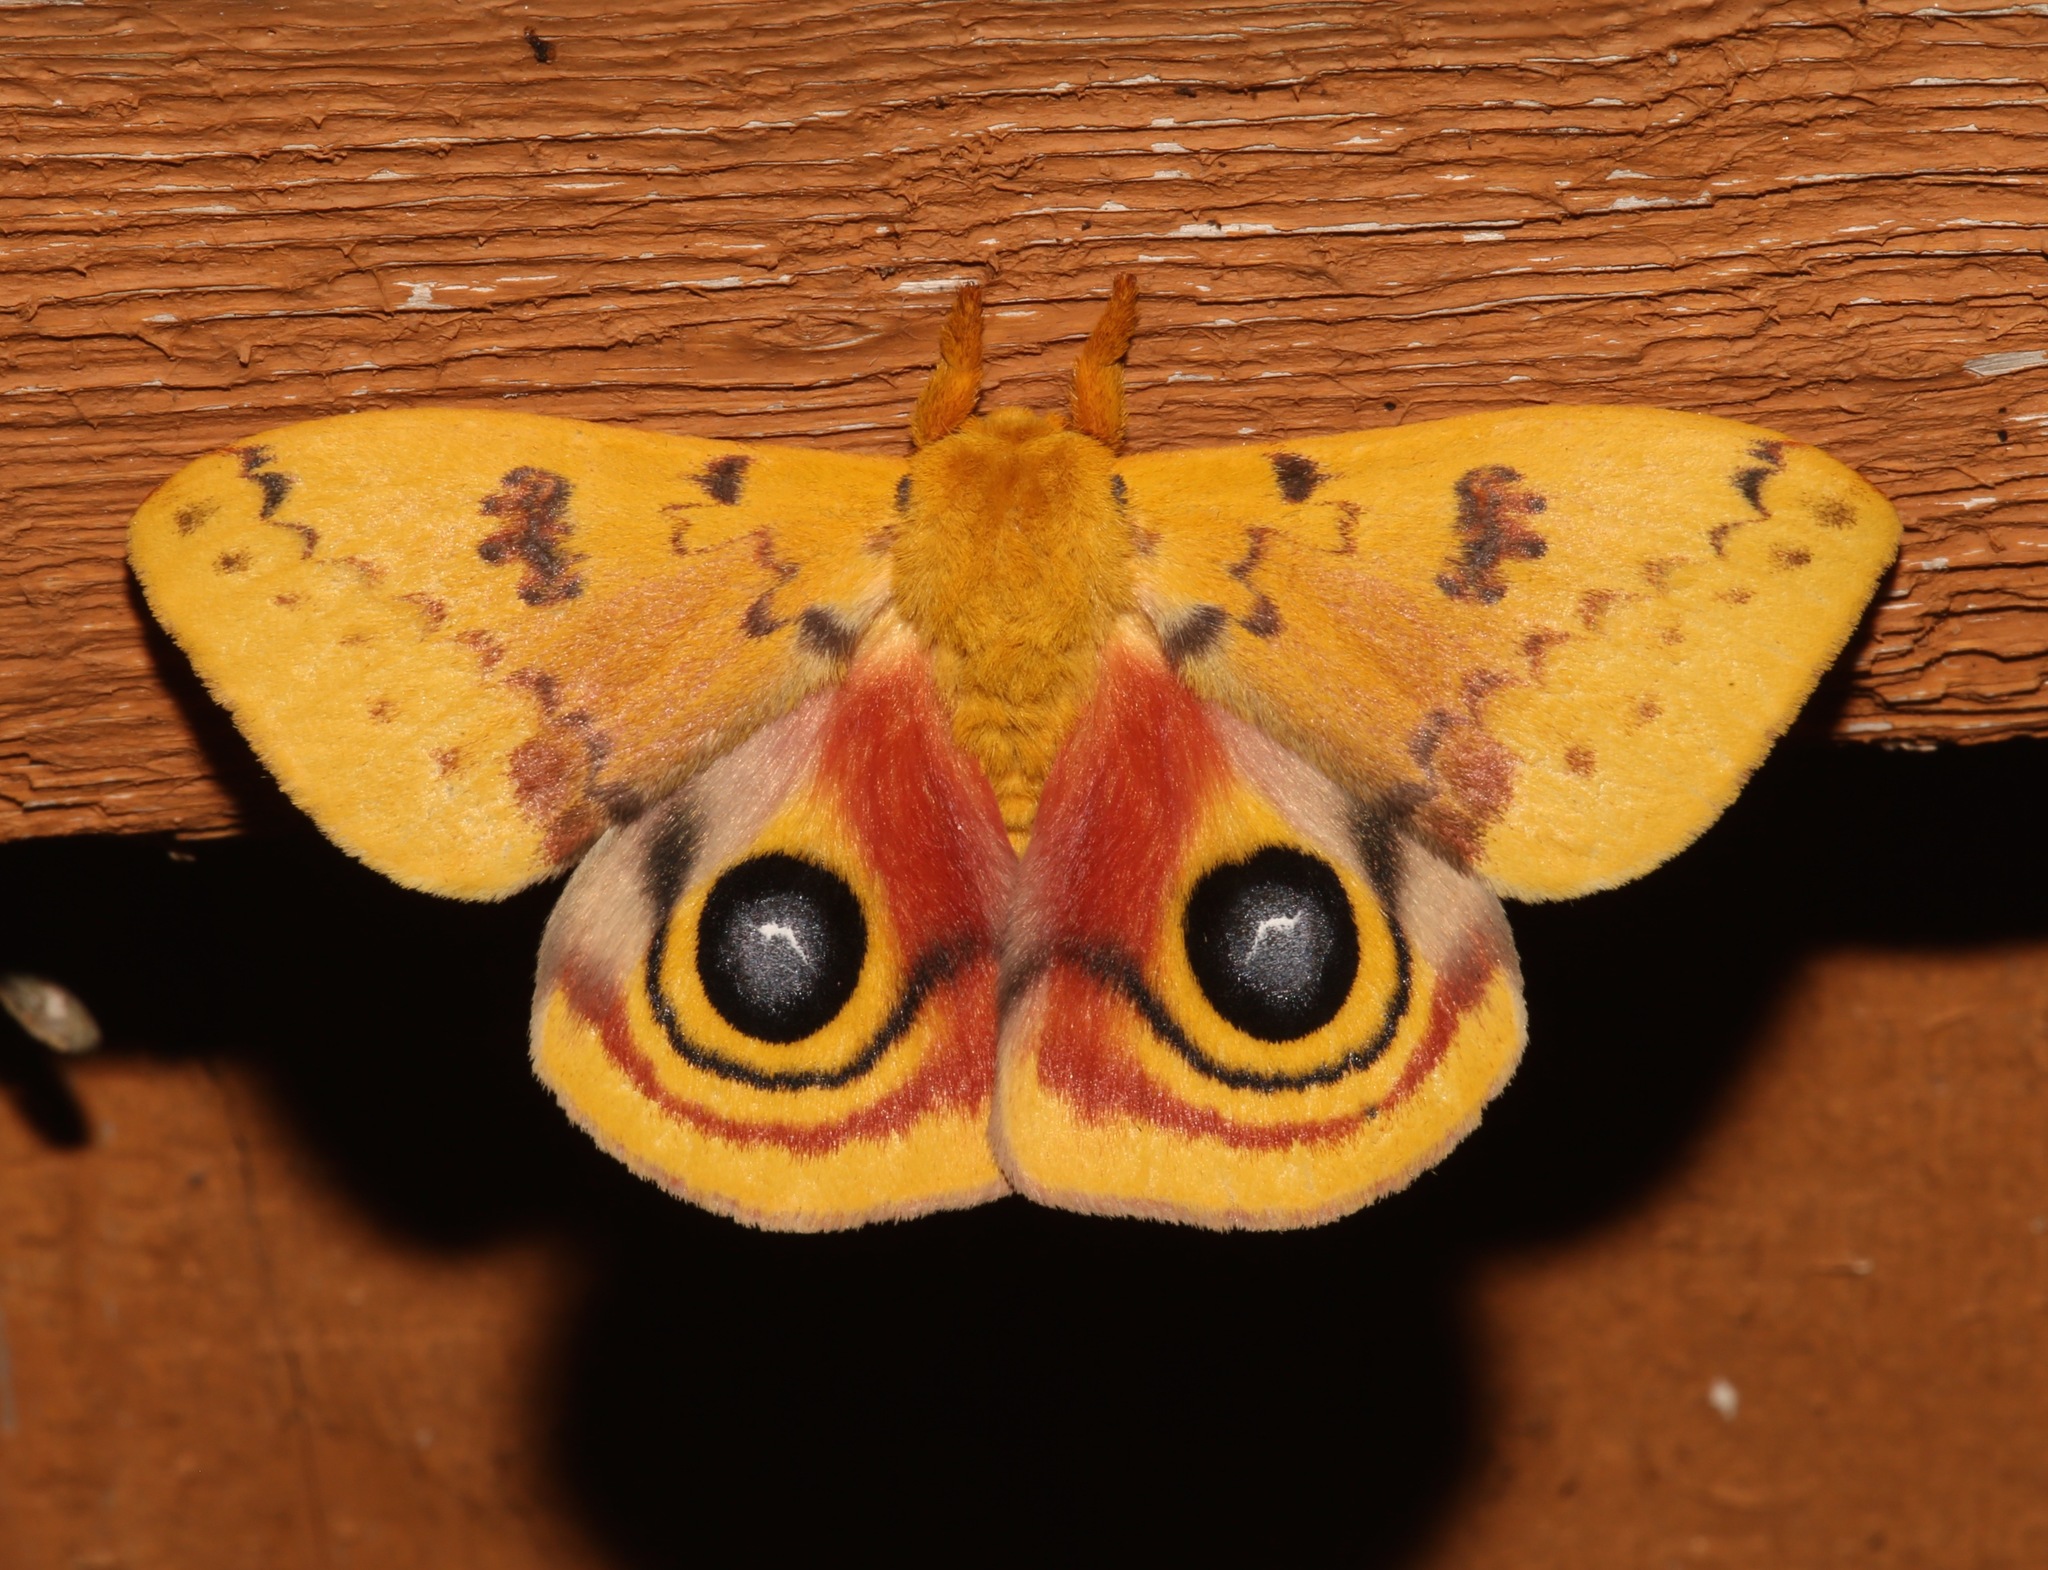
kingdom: Animalia
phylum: Arthropoda
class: Insecta
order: Lepidoptera
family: Saturniidae
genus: Automeris
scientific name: Automeris io
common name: Io moth
